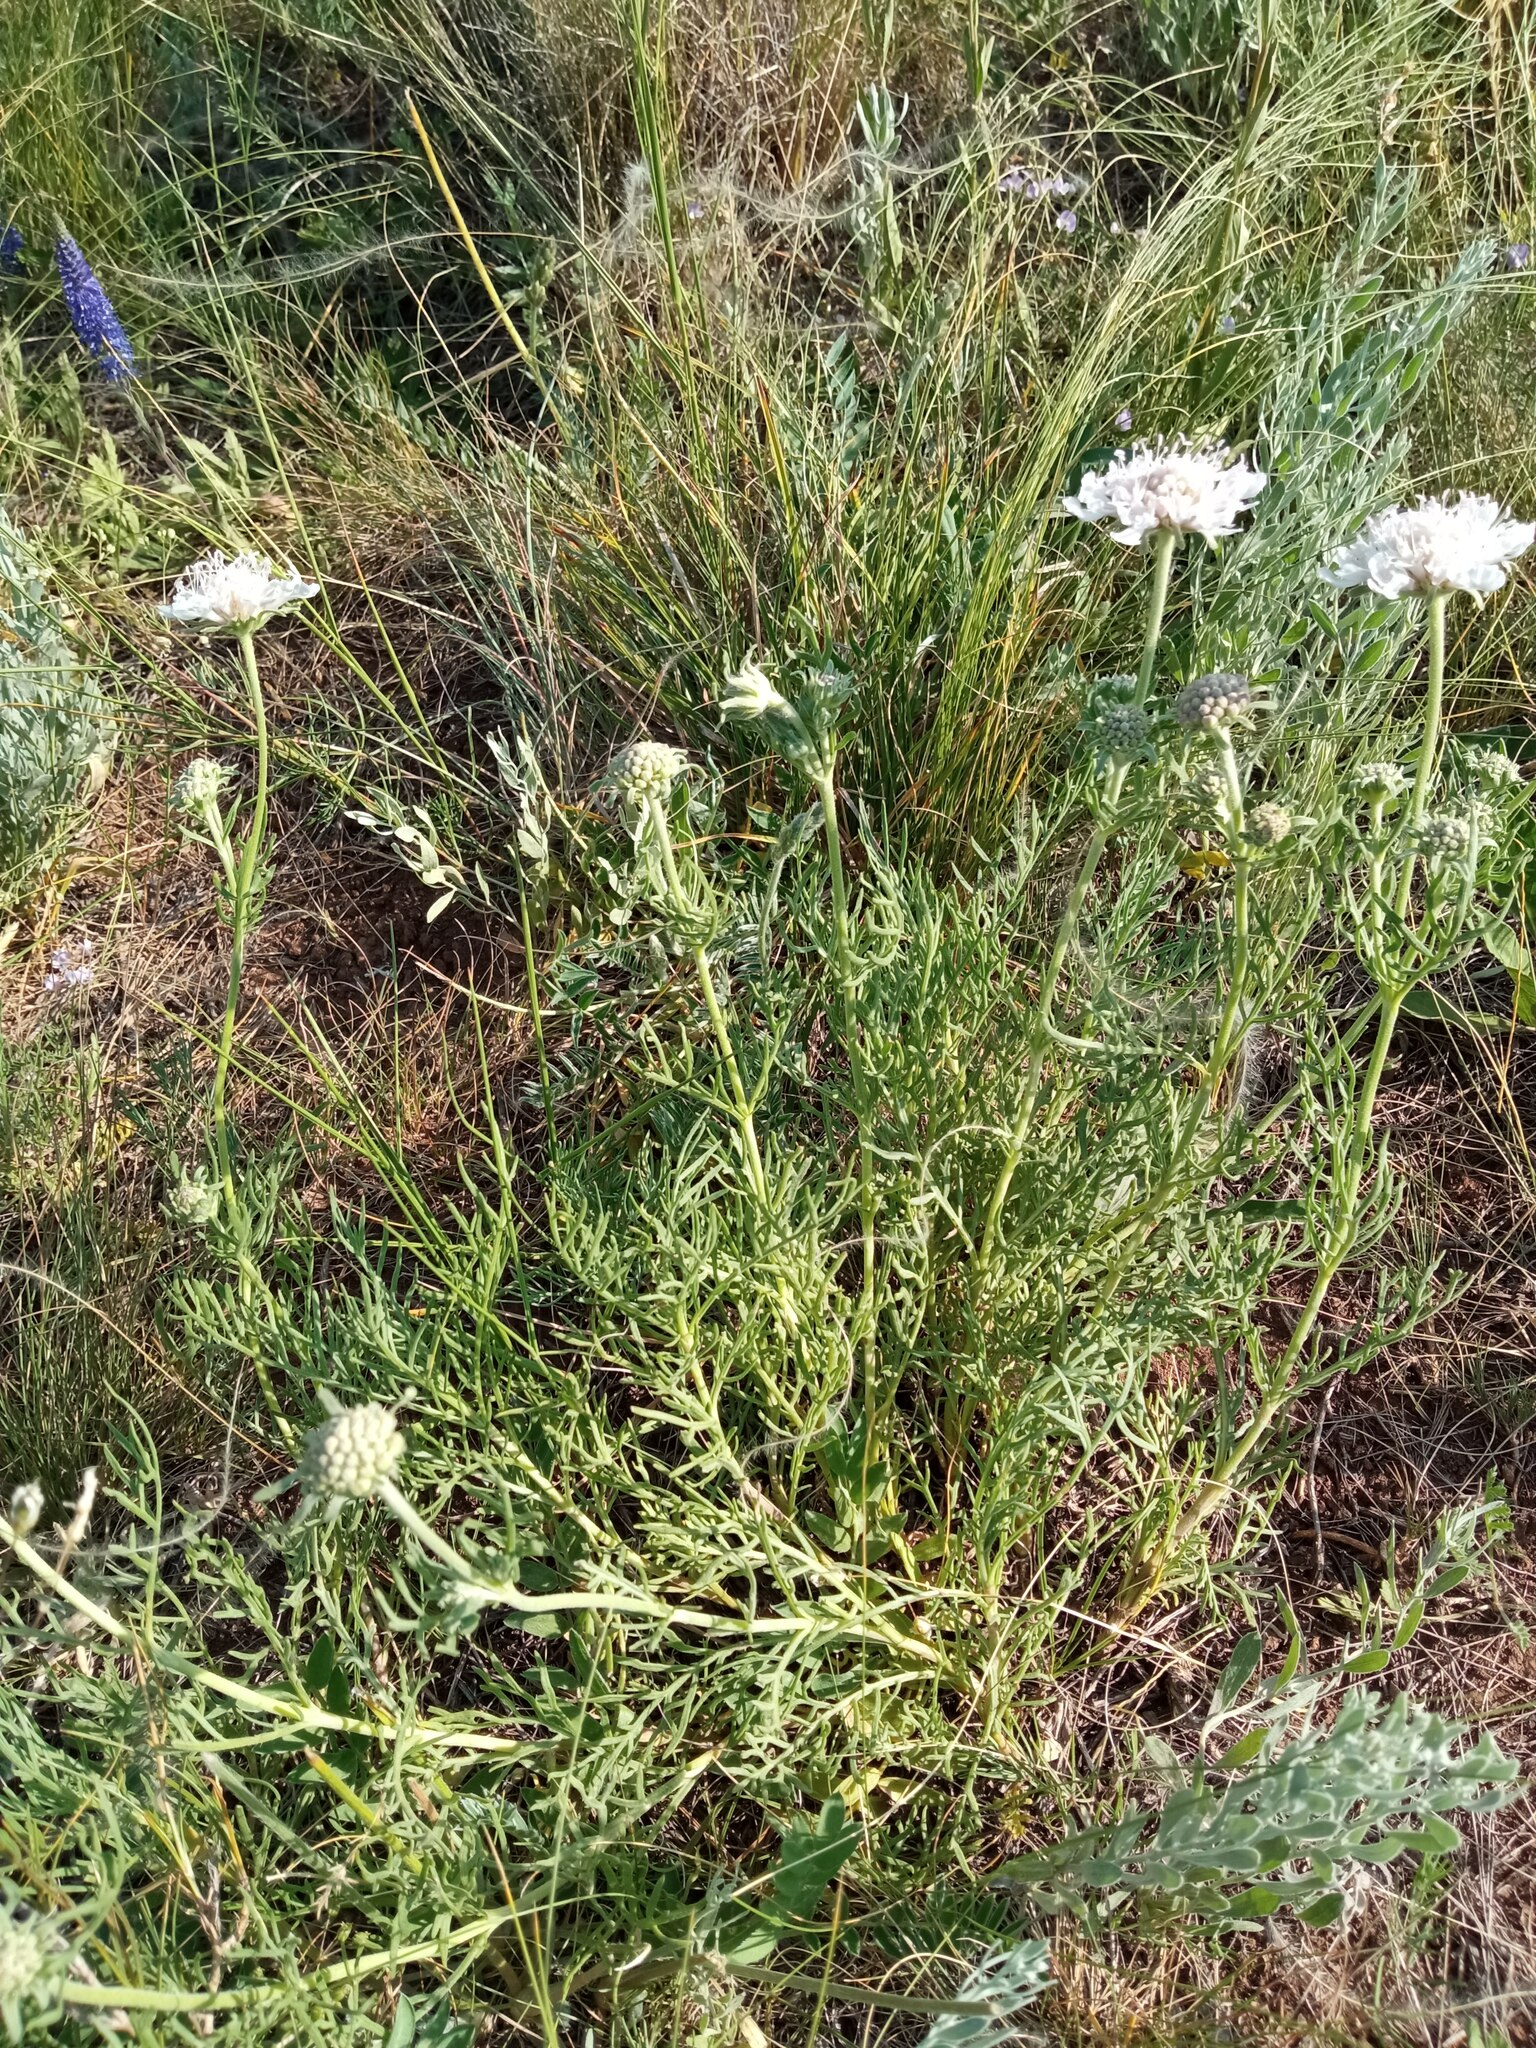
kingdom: Plantae
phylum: Tracheophyta
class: Magnoliopsida
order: Dipsacales
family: Caprifoliaceae
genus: Lomelosia
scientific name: Lomelosia isetensis
